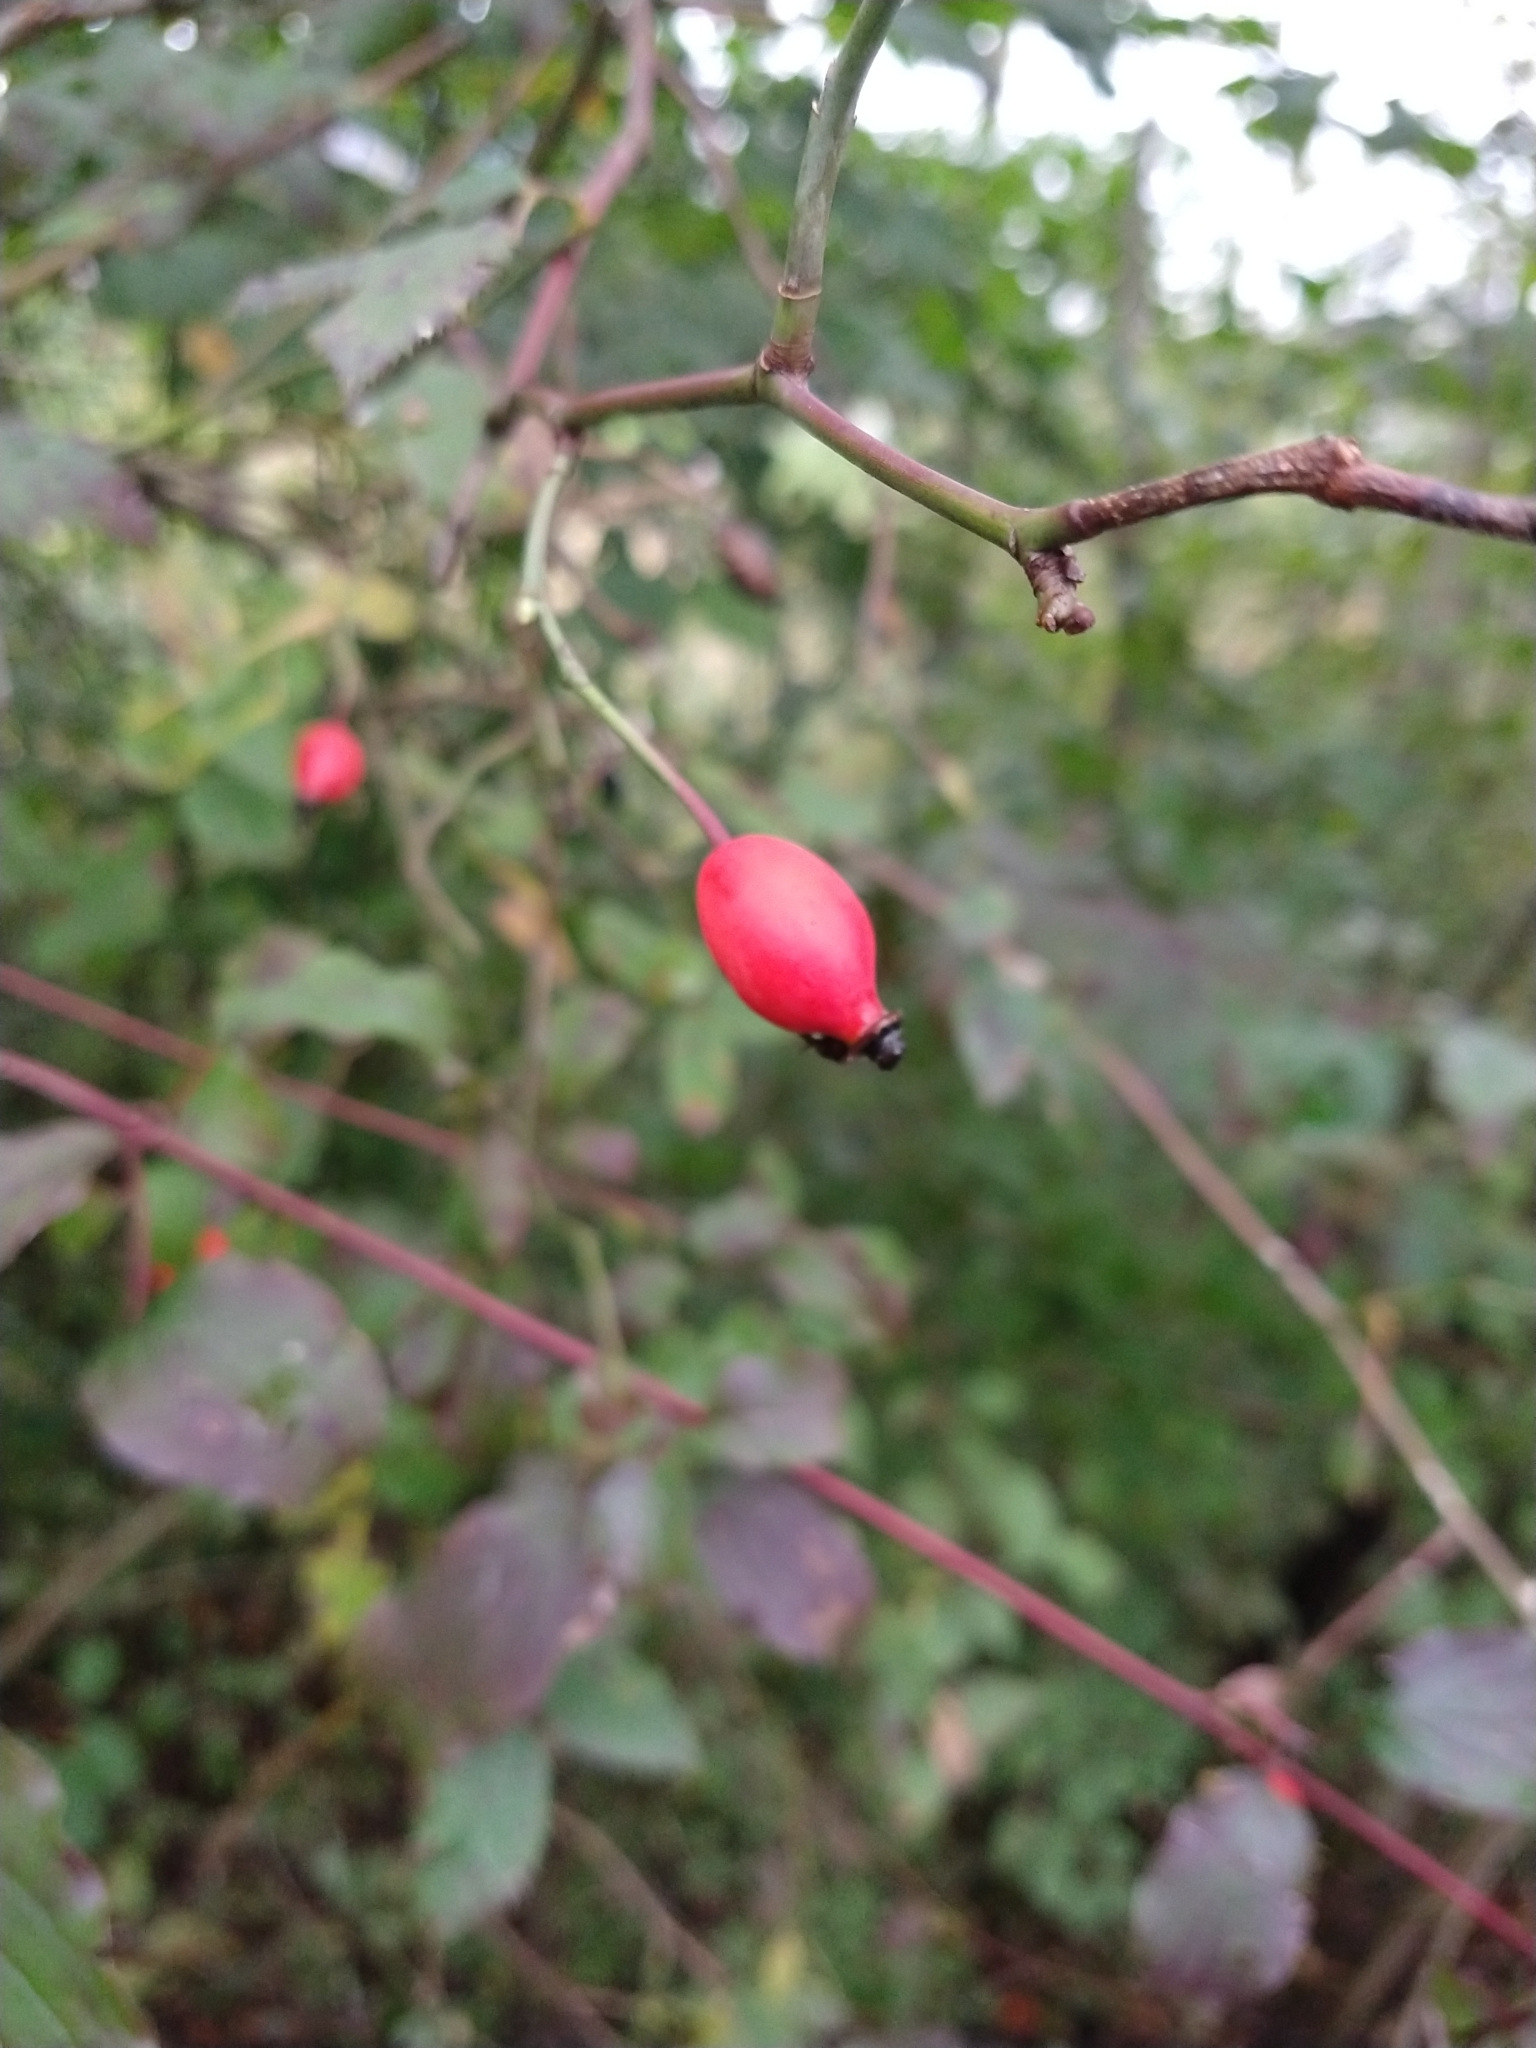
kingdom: Plantae
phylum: Tracheophyta
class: Magnoliopsida
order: Rosales
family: Rosaceae
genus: Rosa
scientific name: Rosa canina
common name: Dog rose
